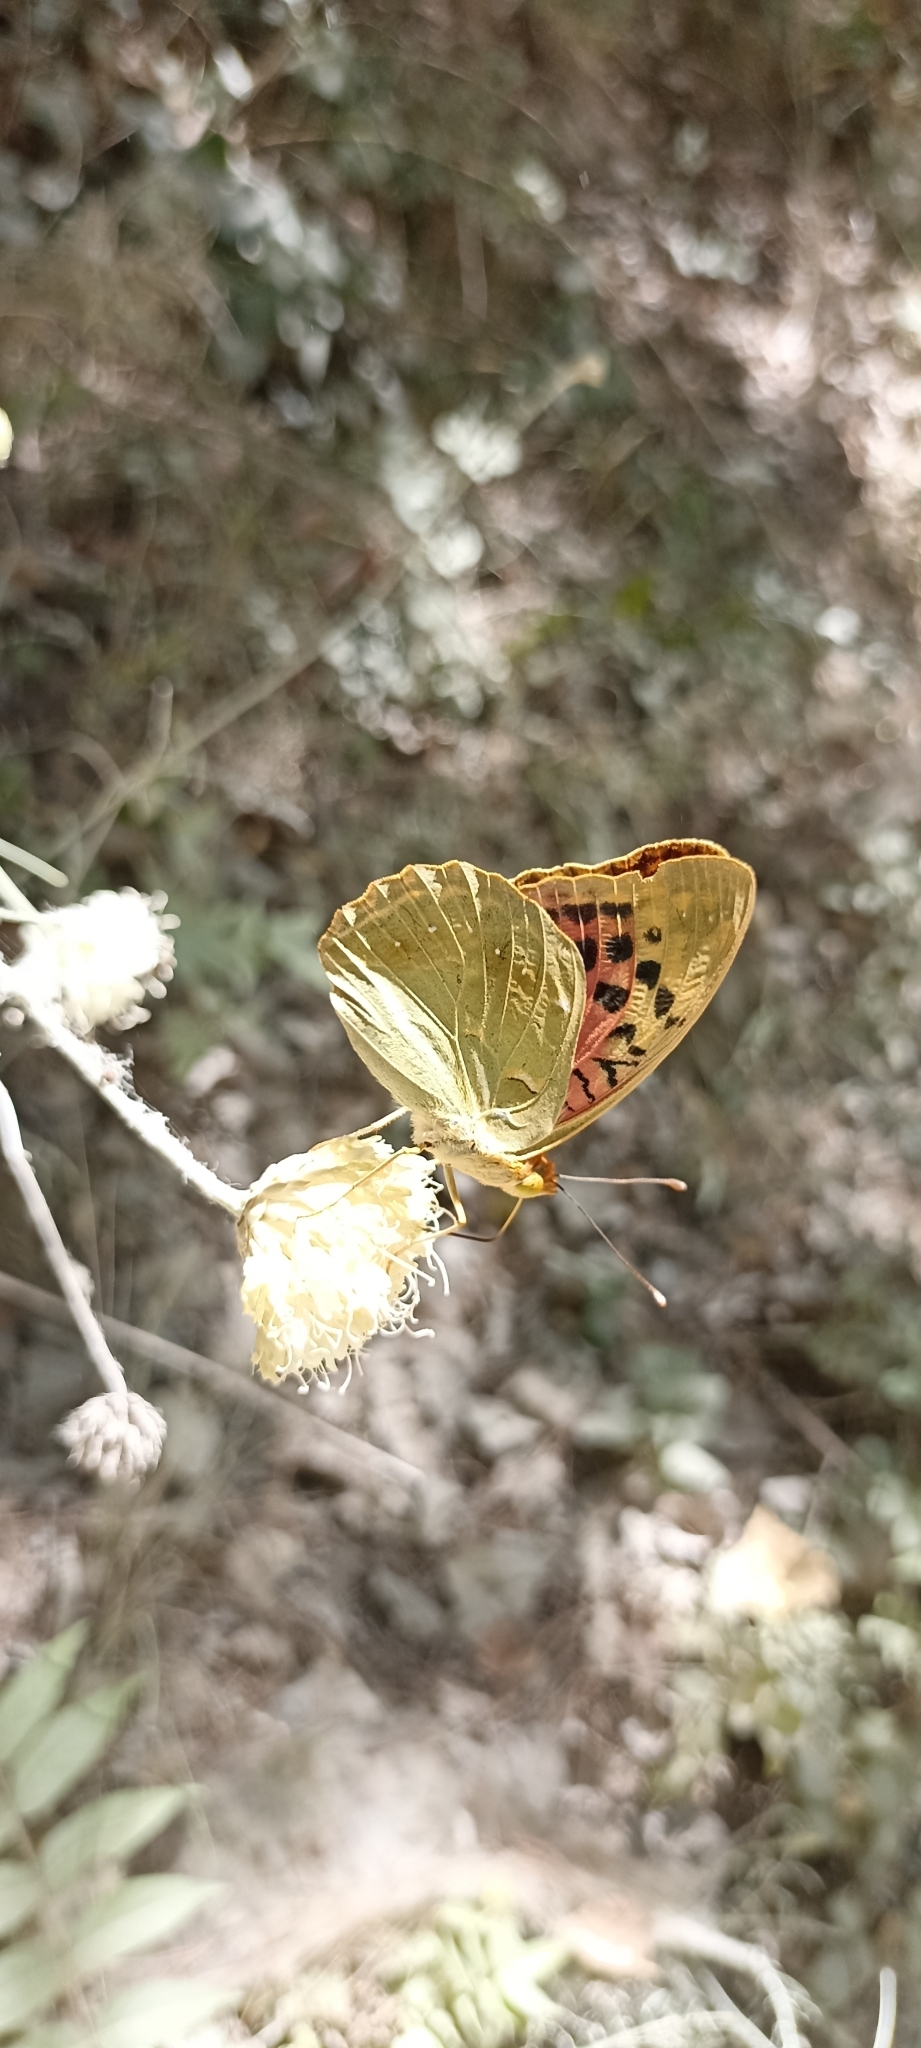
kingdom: Animalia
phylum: Arthropoda
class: Insecta
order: Lepidoptera
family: Nymphalidae
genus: Damora
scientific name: Damora pandora
